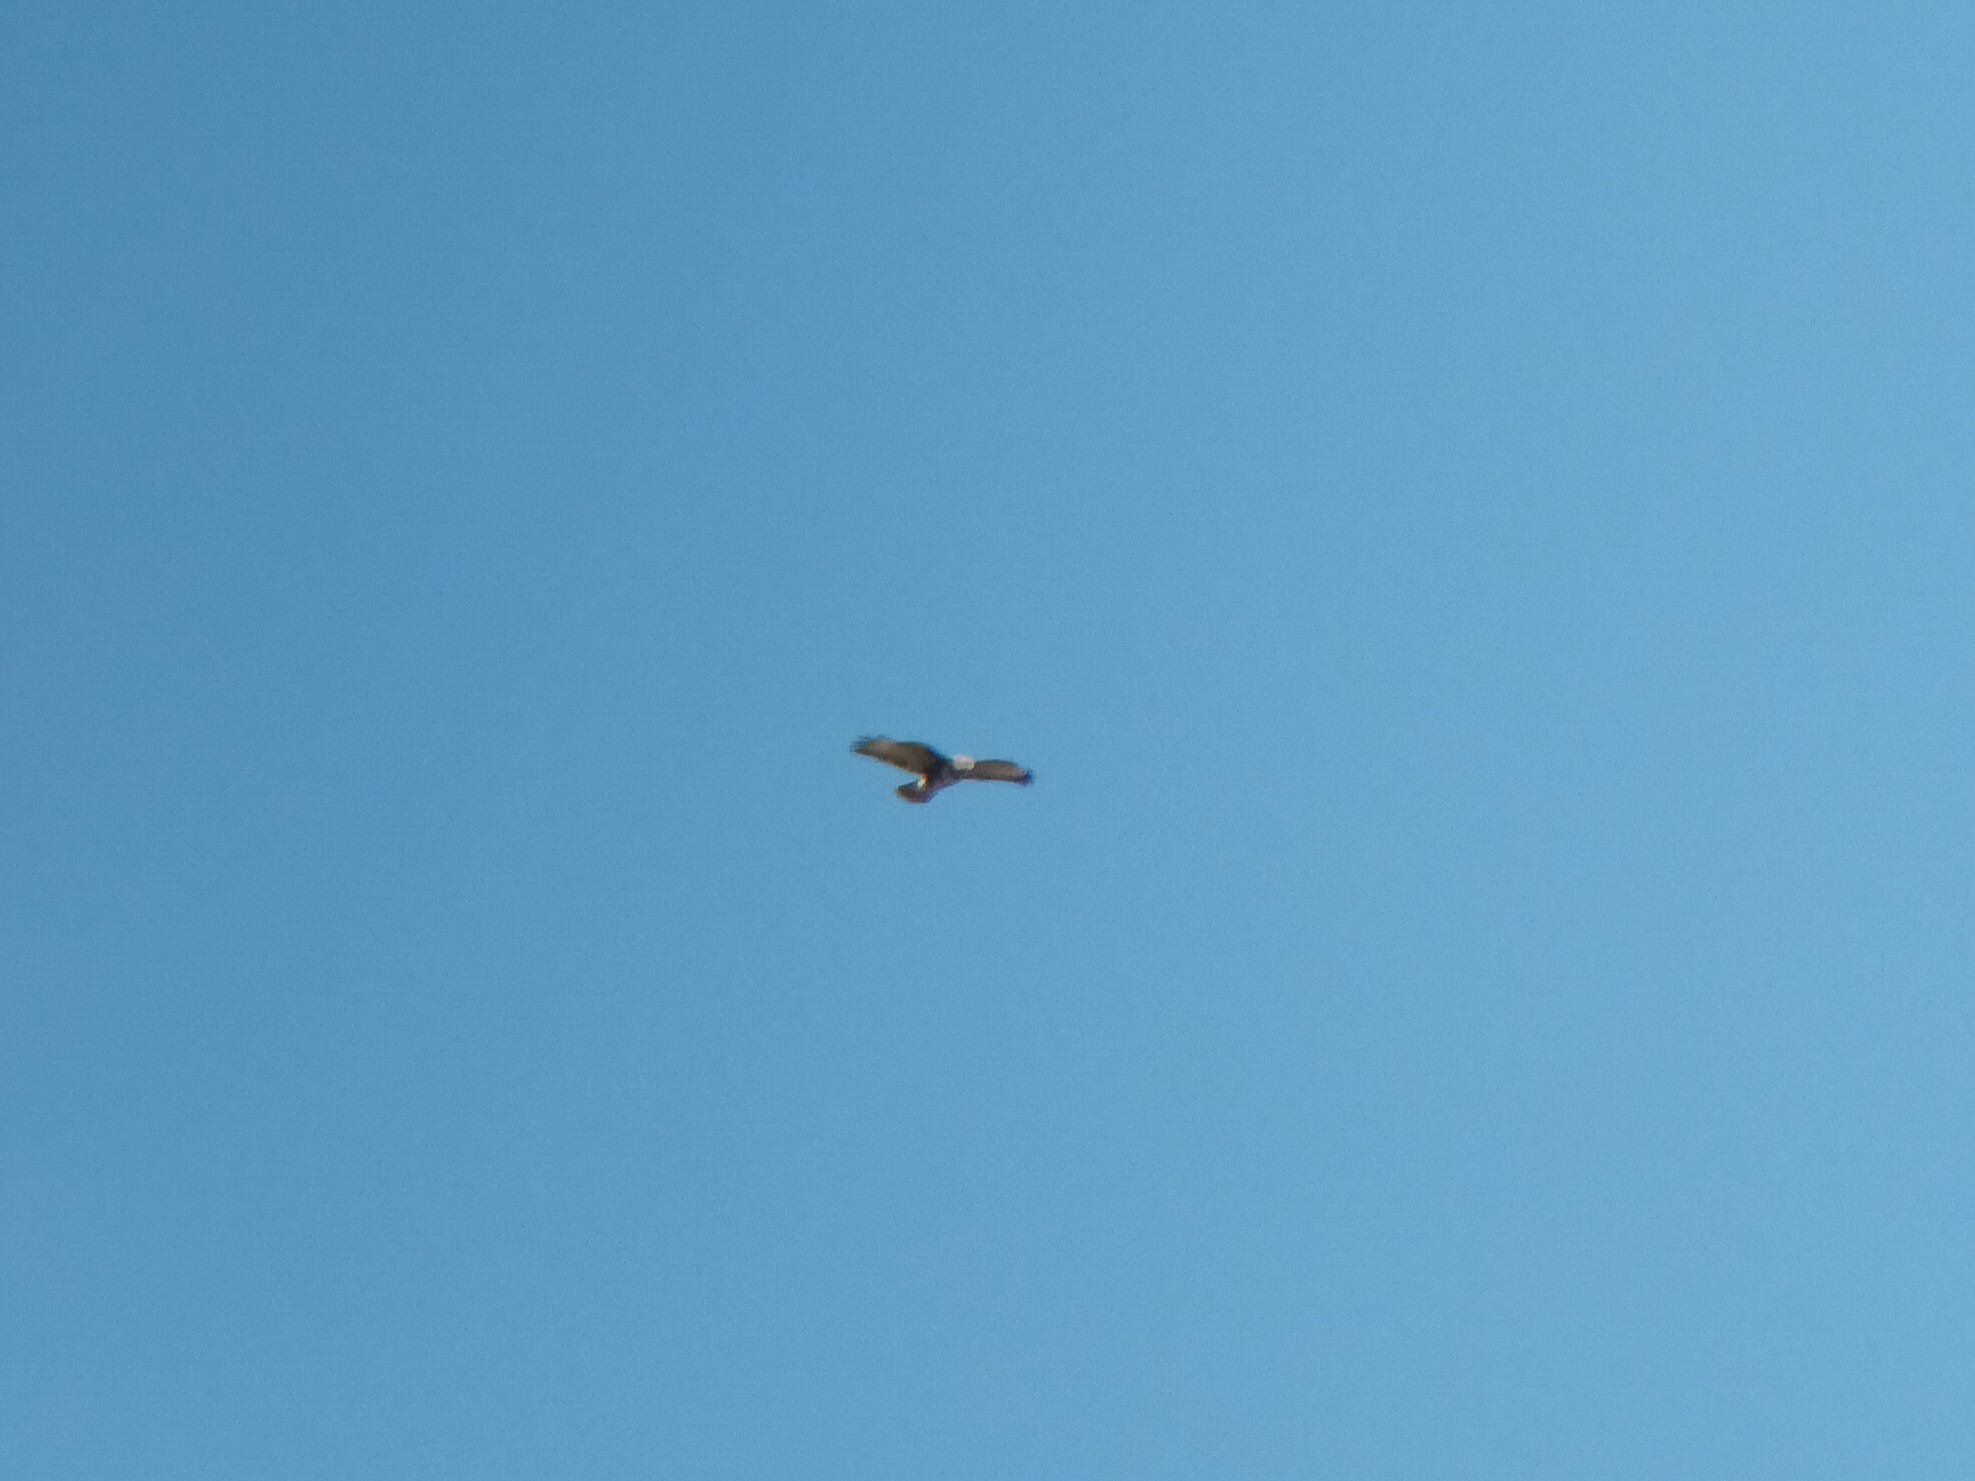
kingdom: Animalia
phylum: Chordata
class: Aves
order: Accipitriformes
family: Accipitridae
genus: Buteo
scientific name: Buteo buteo
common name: Common buzzard
